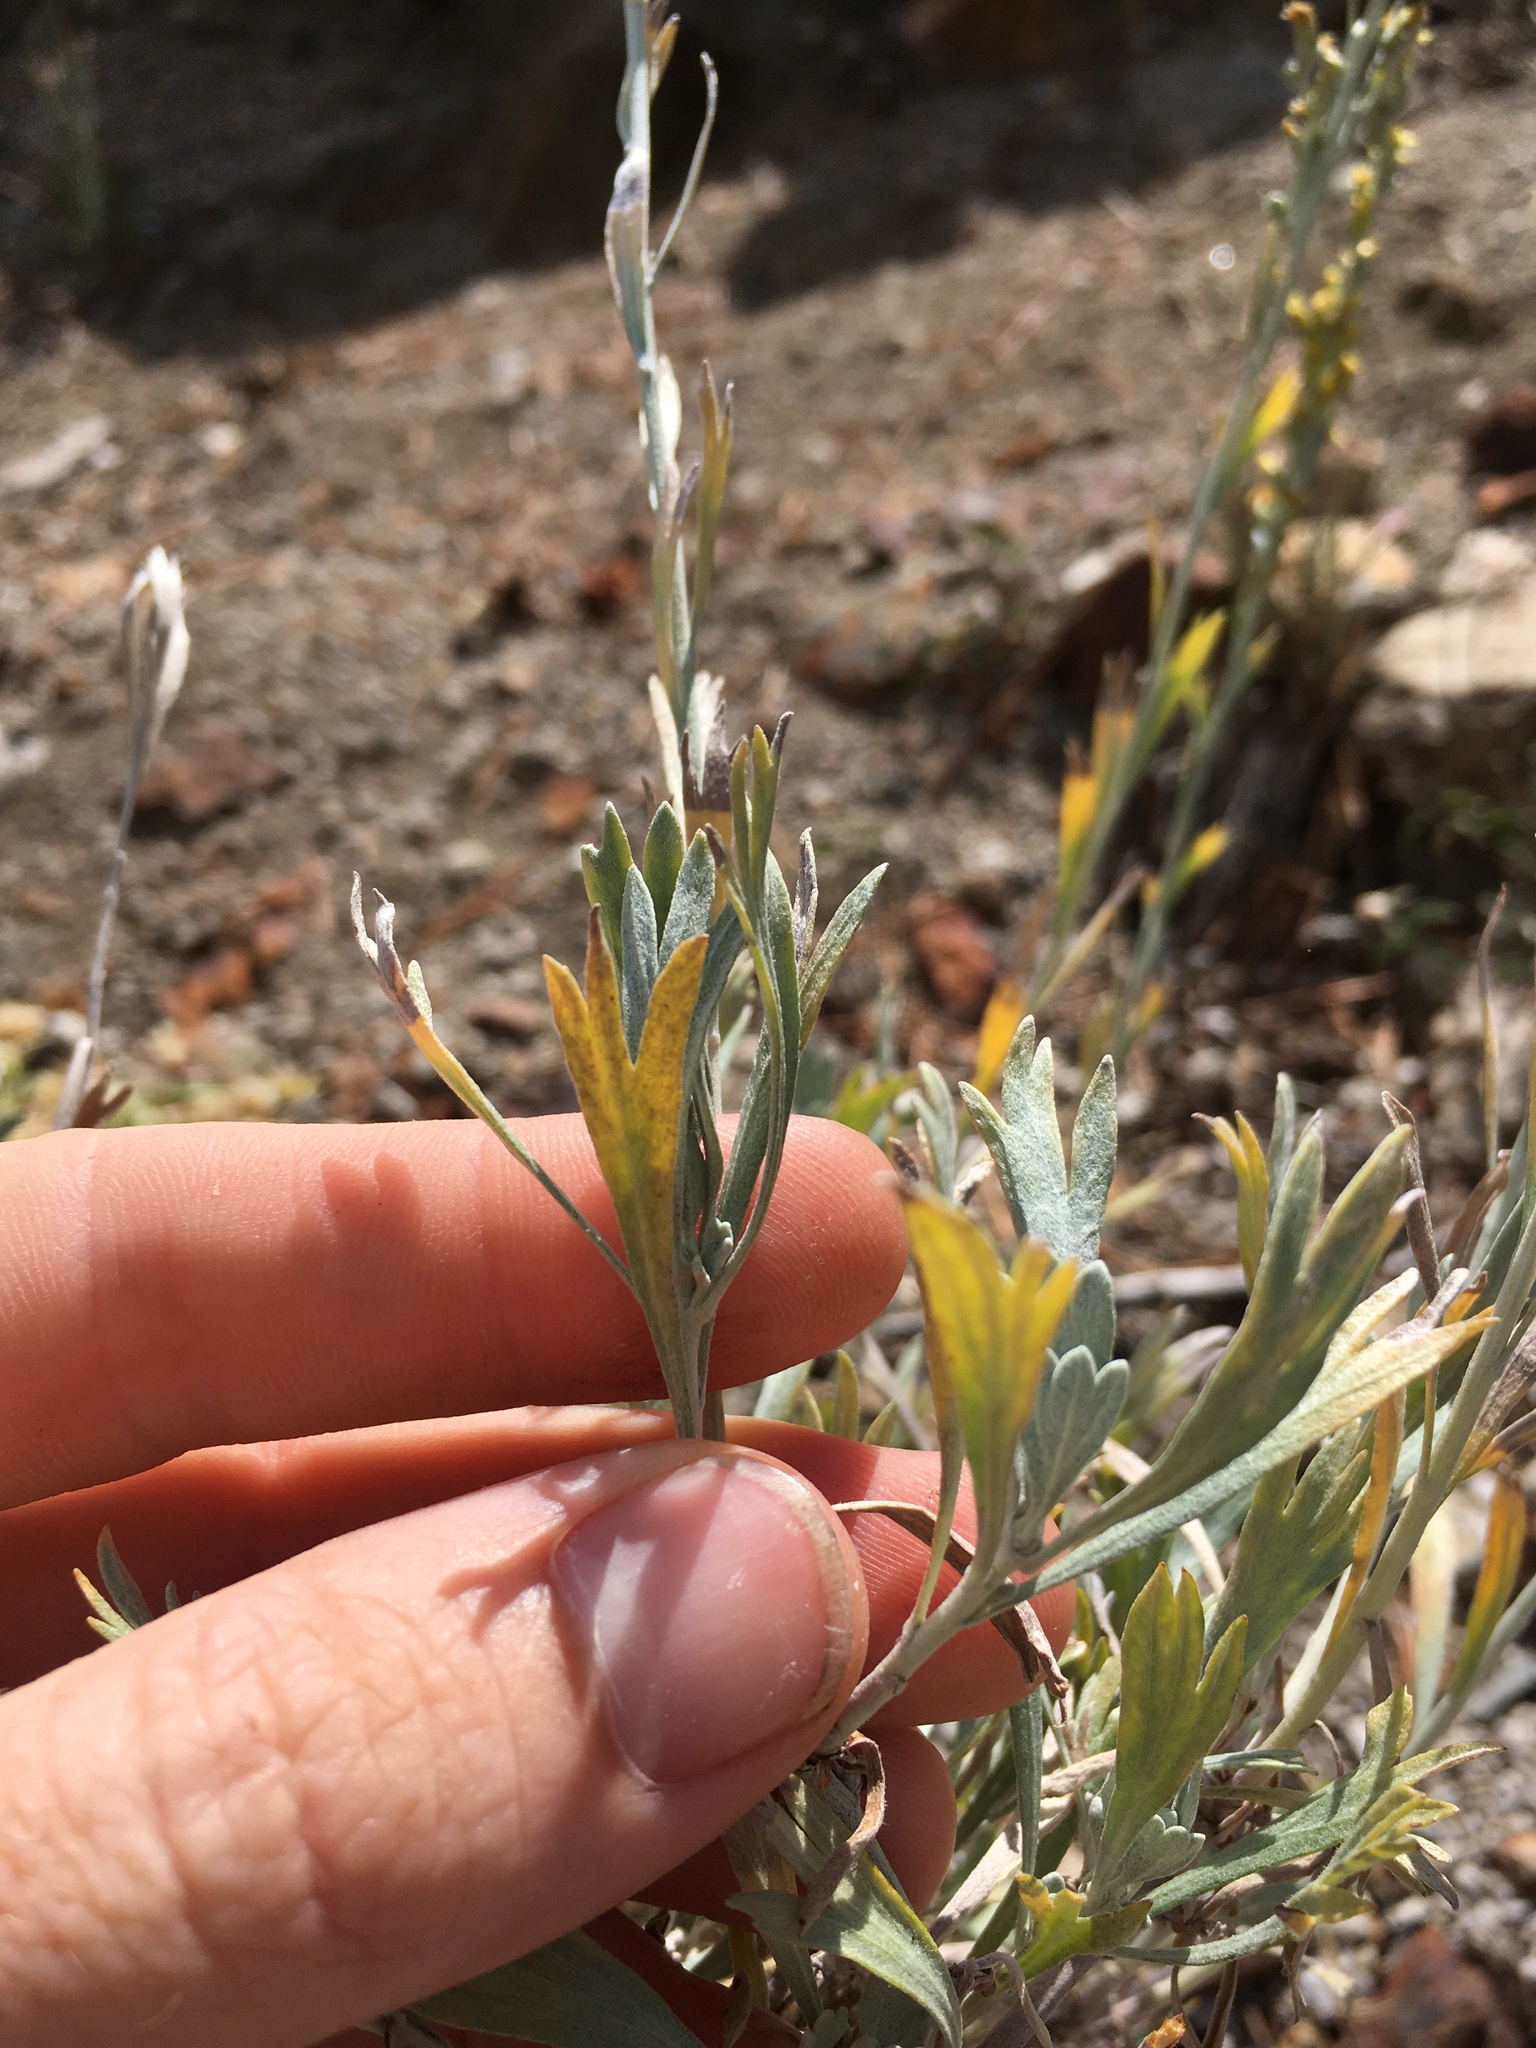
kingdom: Plantae
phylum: Tracheophyta
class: Magnoliopsida
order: Asterales
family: Asteraceae
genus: Artemisia
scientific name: Artemisia spiciformis
